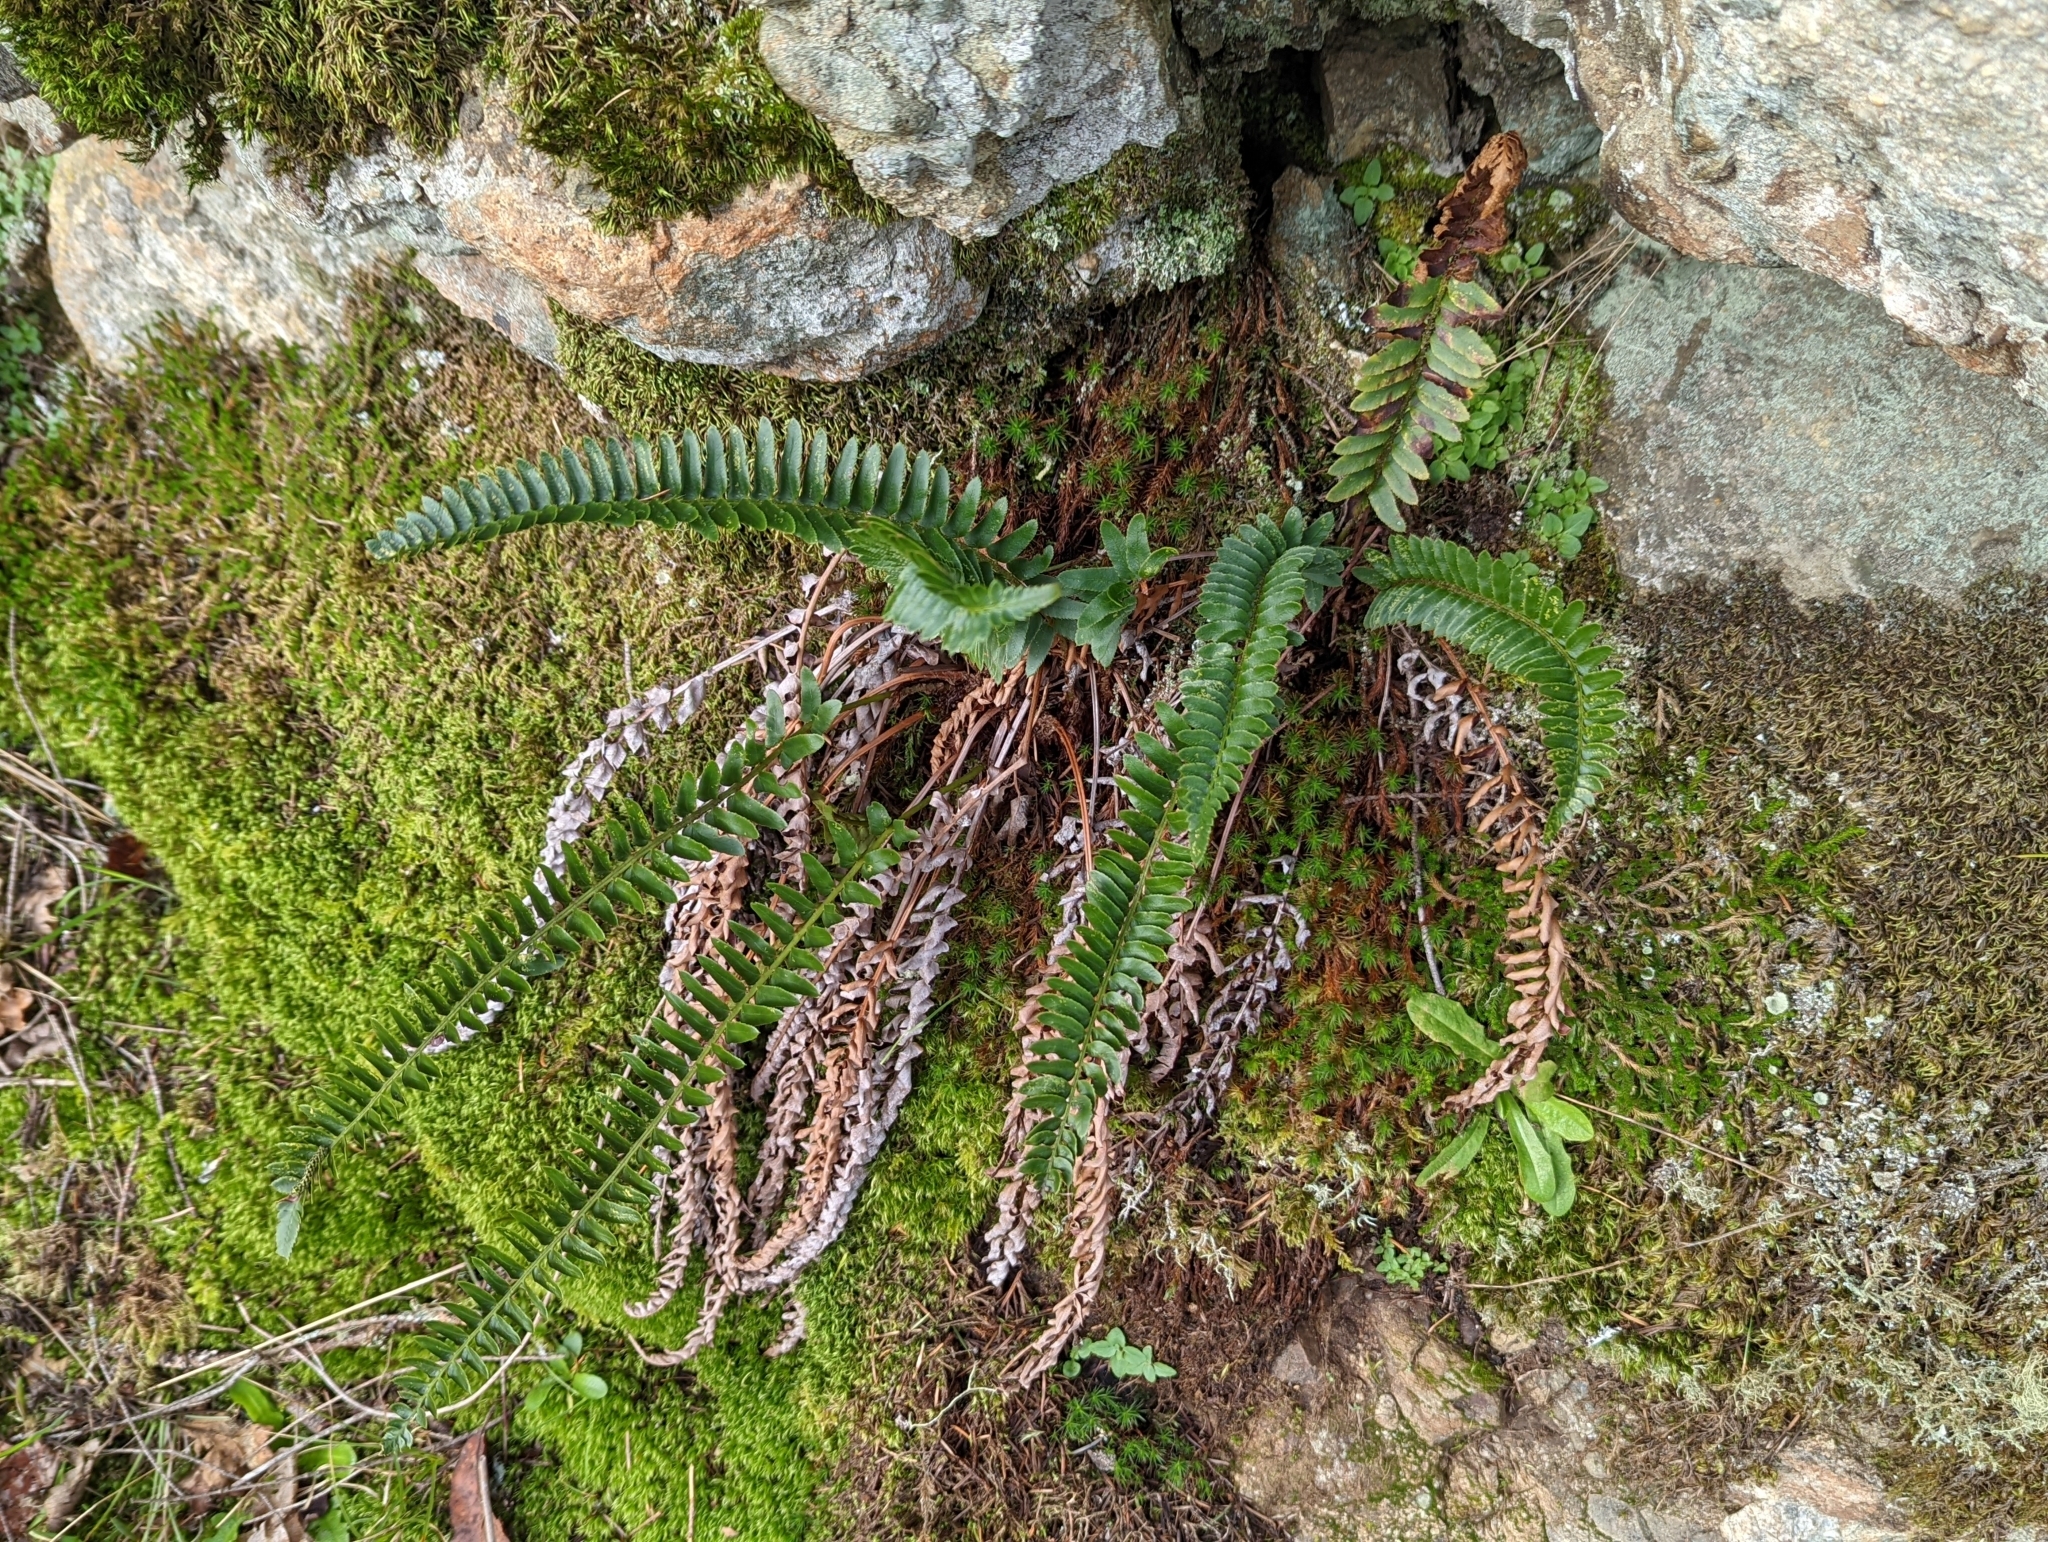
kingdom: Plantae
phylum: Tracheophyta
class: Polypodiopsida
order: Polypodiales
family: Dryopteridaceae
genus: Polystichum
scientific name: Polystichum imbricans
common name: Dwarf western sword fern
